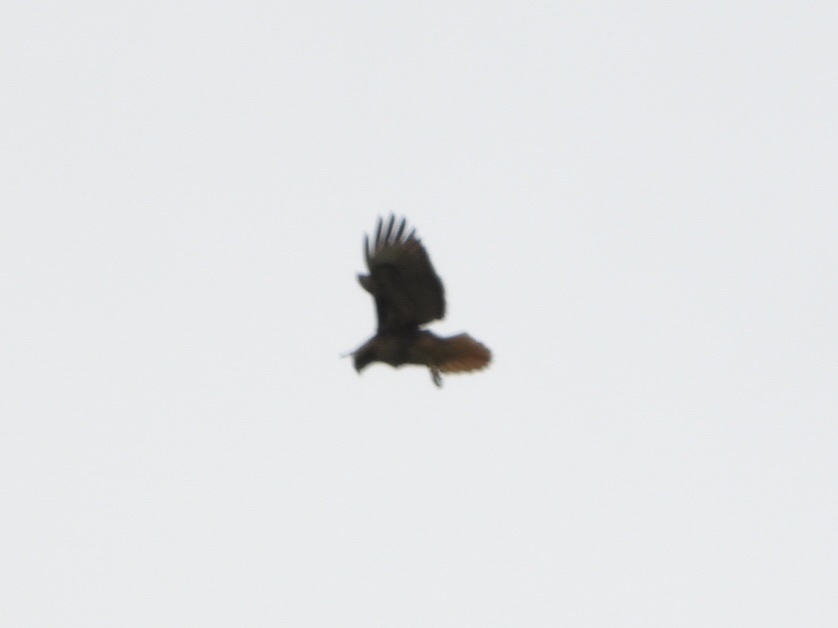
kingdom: Animalia
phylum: Chordata
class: Aves
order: Accipitriformes
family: Accipitridae
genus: Buteo
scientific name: Buteo jamaicensis
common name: Red-tailed hawk
